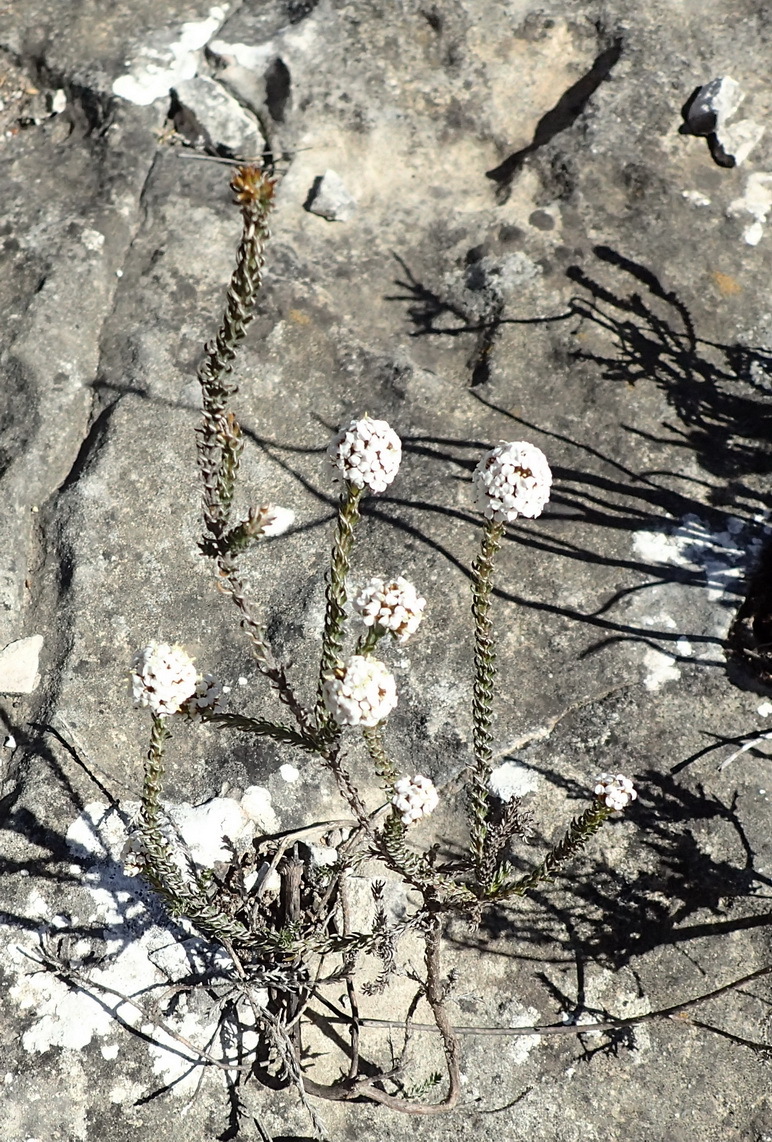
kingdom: Plantae
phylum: Tracheophyta
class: Magnoliopsida
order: Asterales
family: Asteraceae
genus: Disparago
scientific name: Disparago anomala
